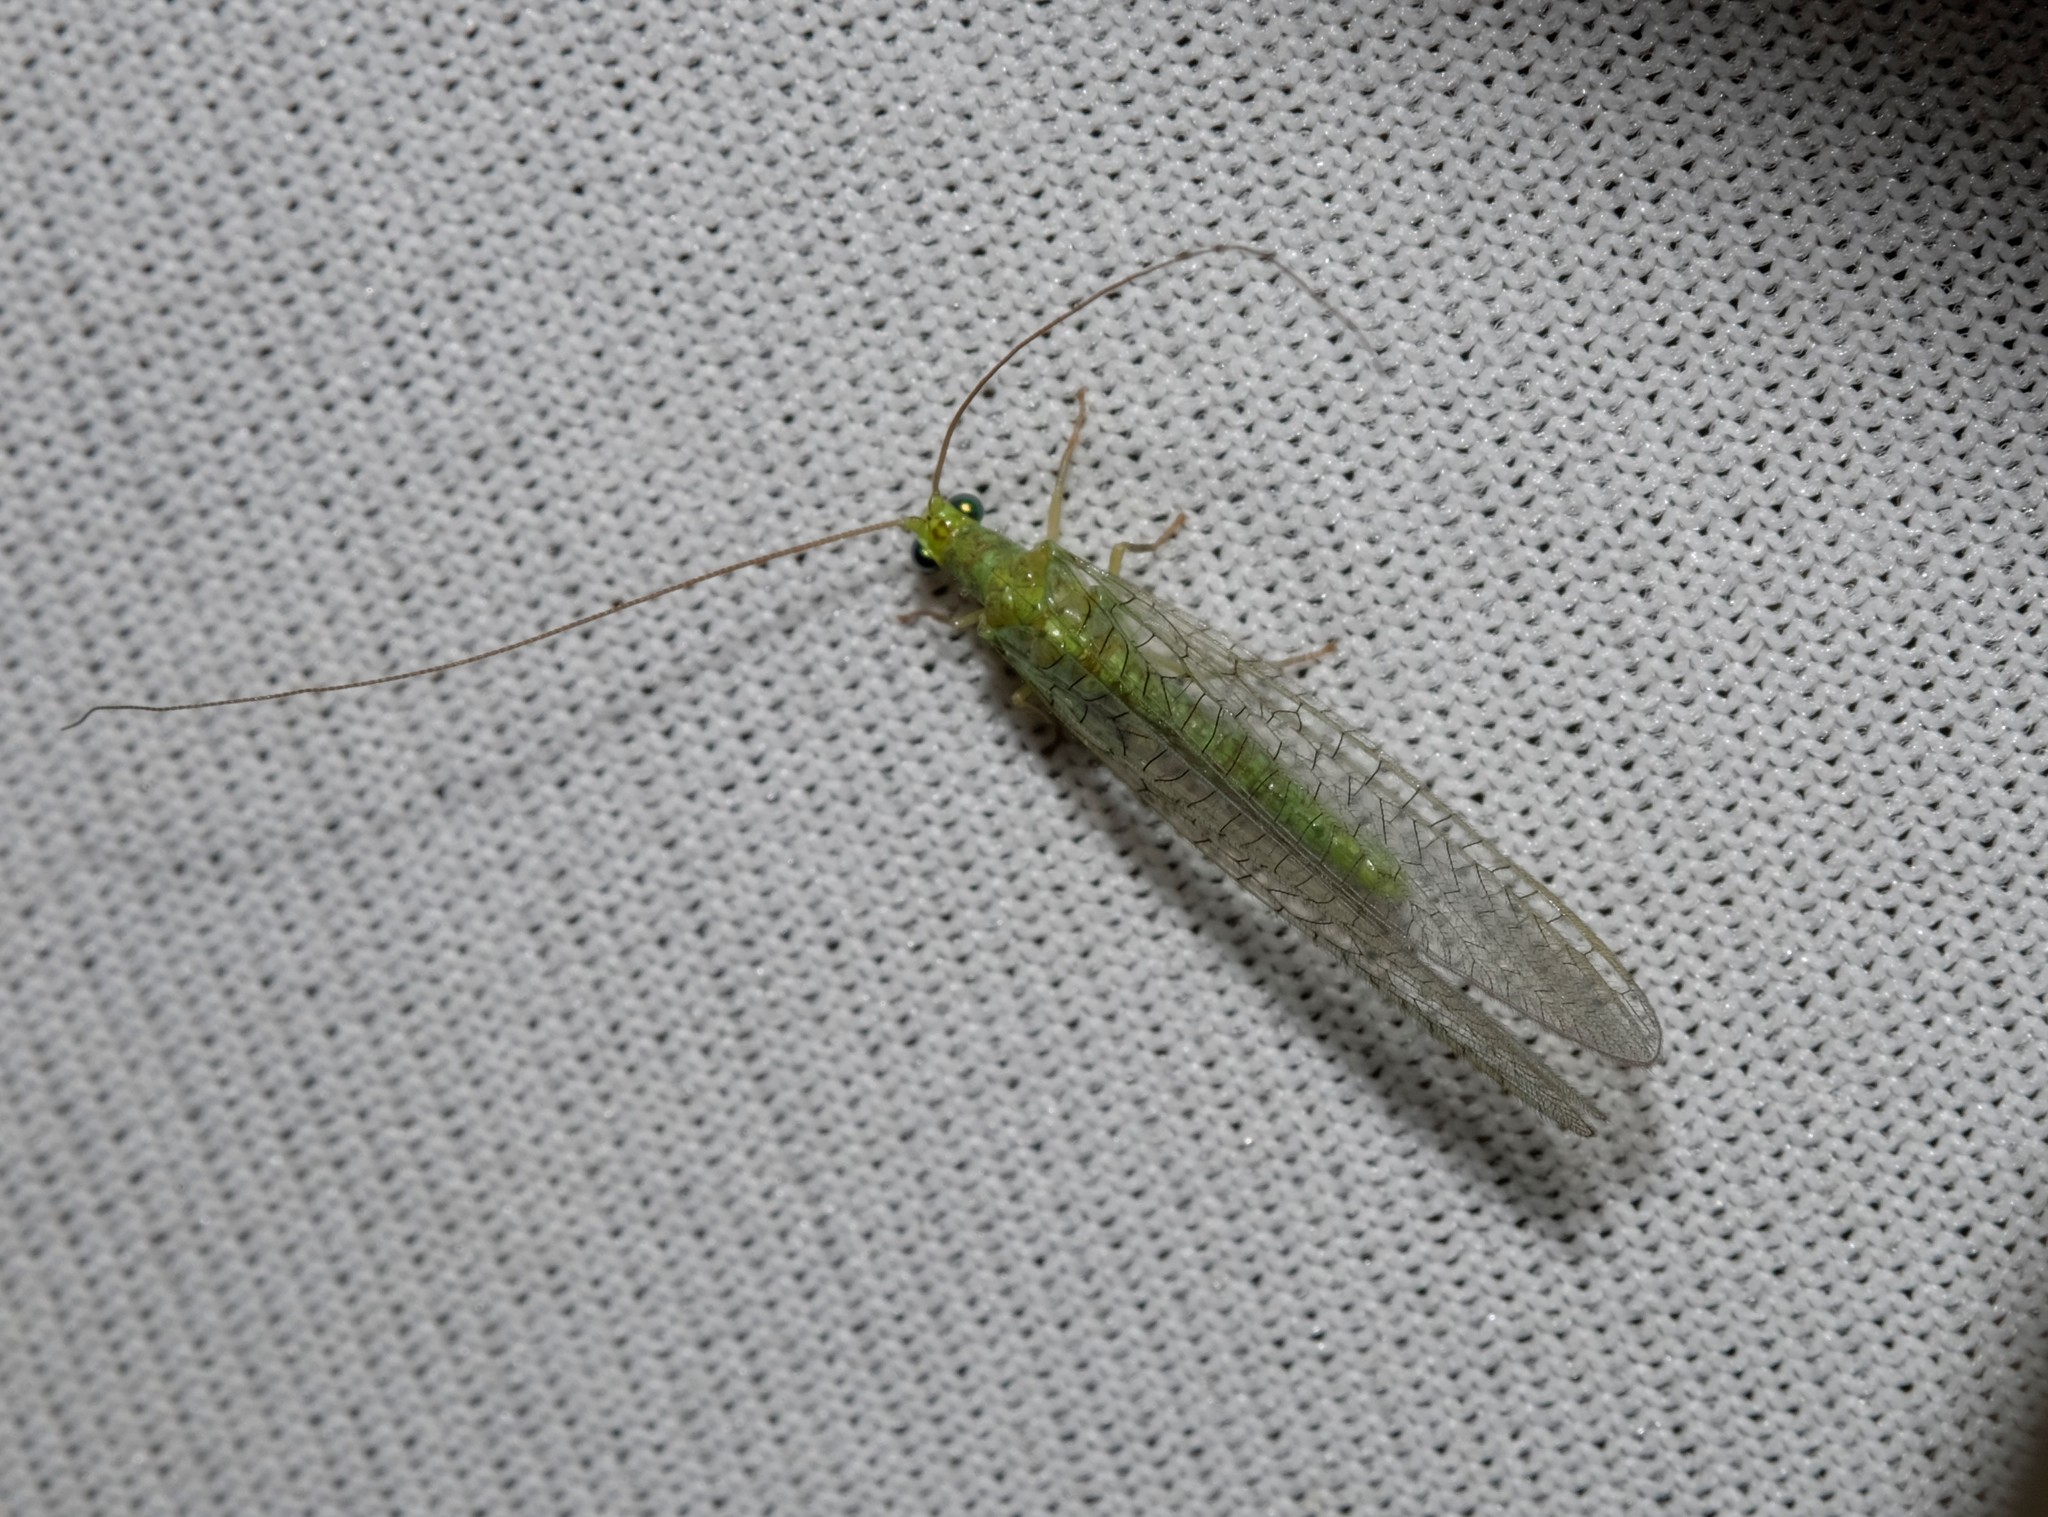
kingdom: Animalia
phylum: Arthropoda
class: Insecta
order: Neuroptera
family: Chrysopidae
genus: Mallada
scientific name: Mallada signatus
